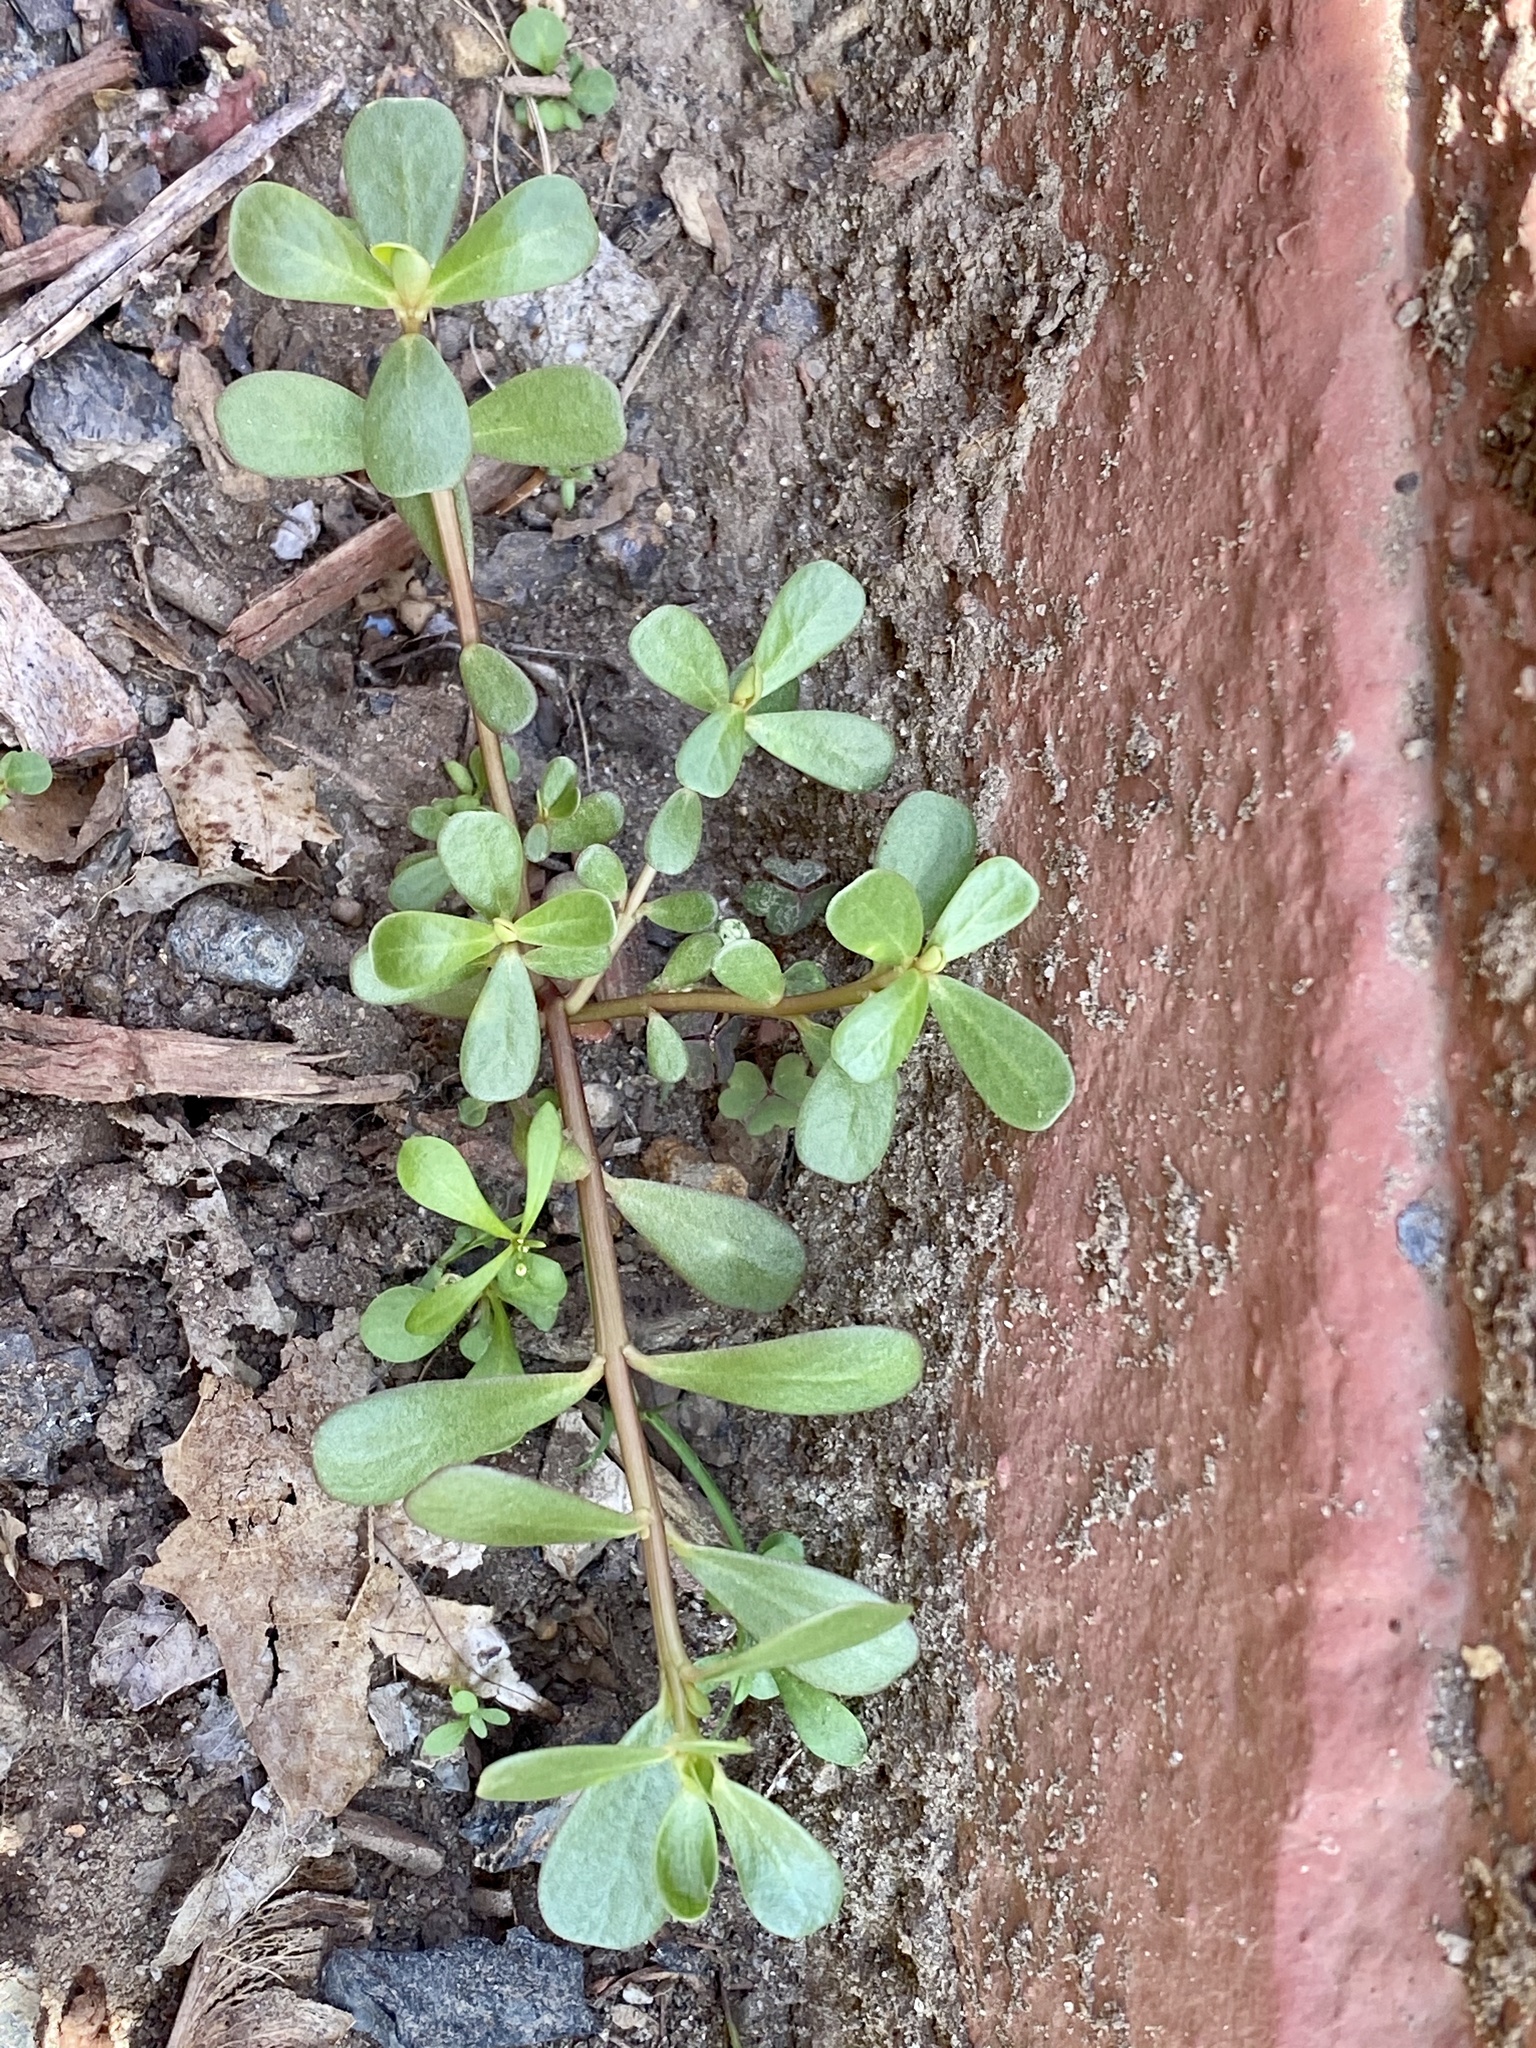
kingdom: Plantae
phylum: Tracheophyta
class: Magnoliopsida
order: Caryophyllales
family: Portulacaceae
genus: Portulaca
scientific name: Portulaca oleracea
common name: Common purslane
